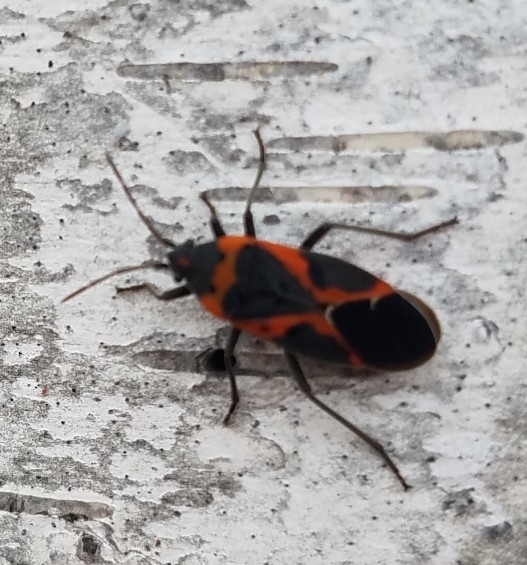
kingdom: Animalia
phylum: Arthropoda
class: Insecta
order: Hemiptera
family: Lygaeidae
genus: Lygaeus
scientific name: Lygaeus kalmii
